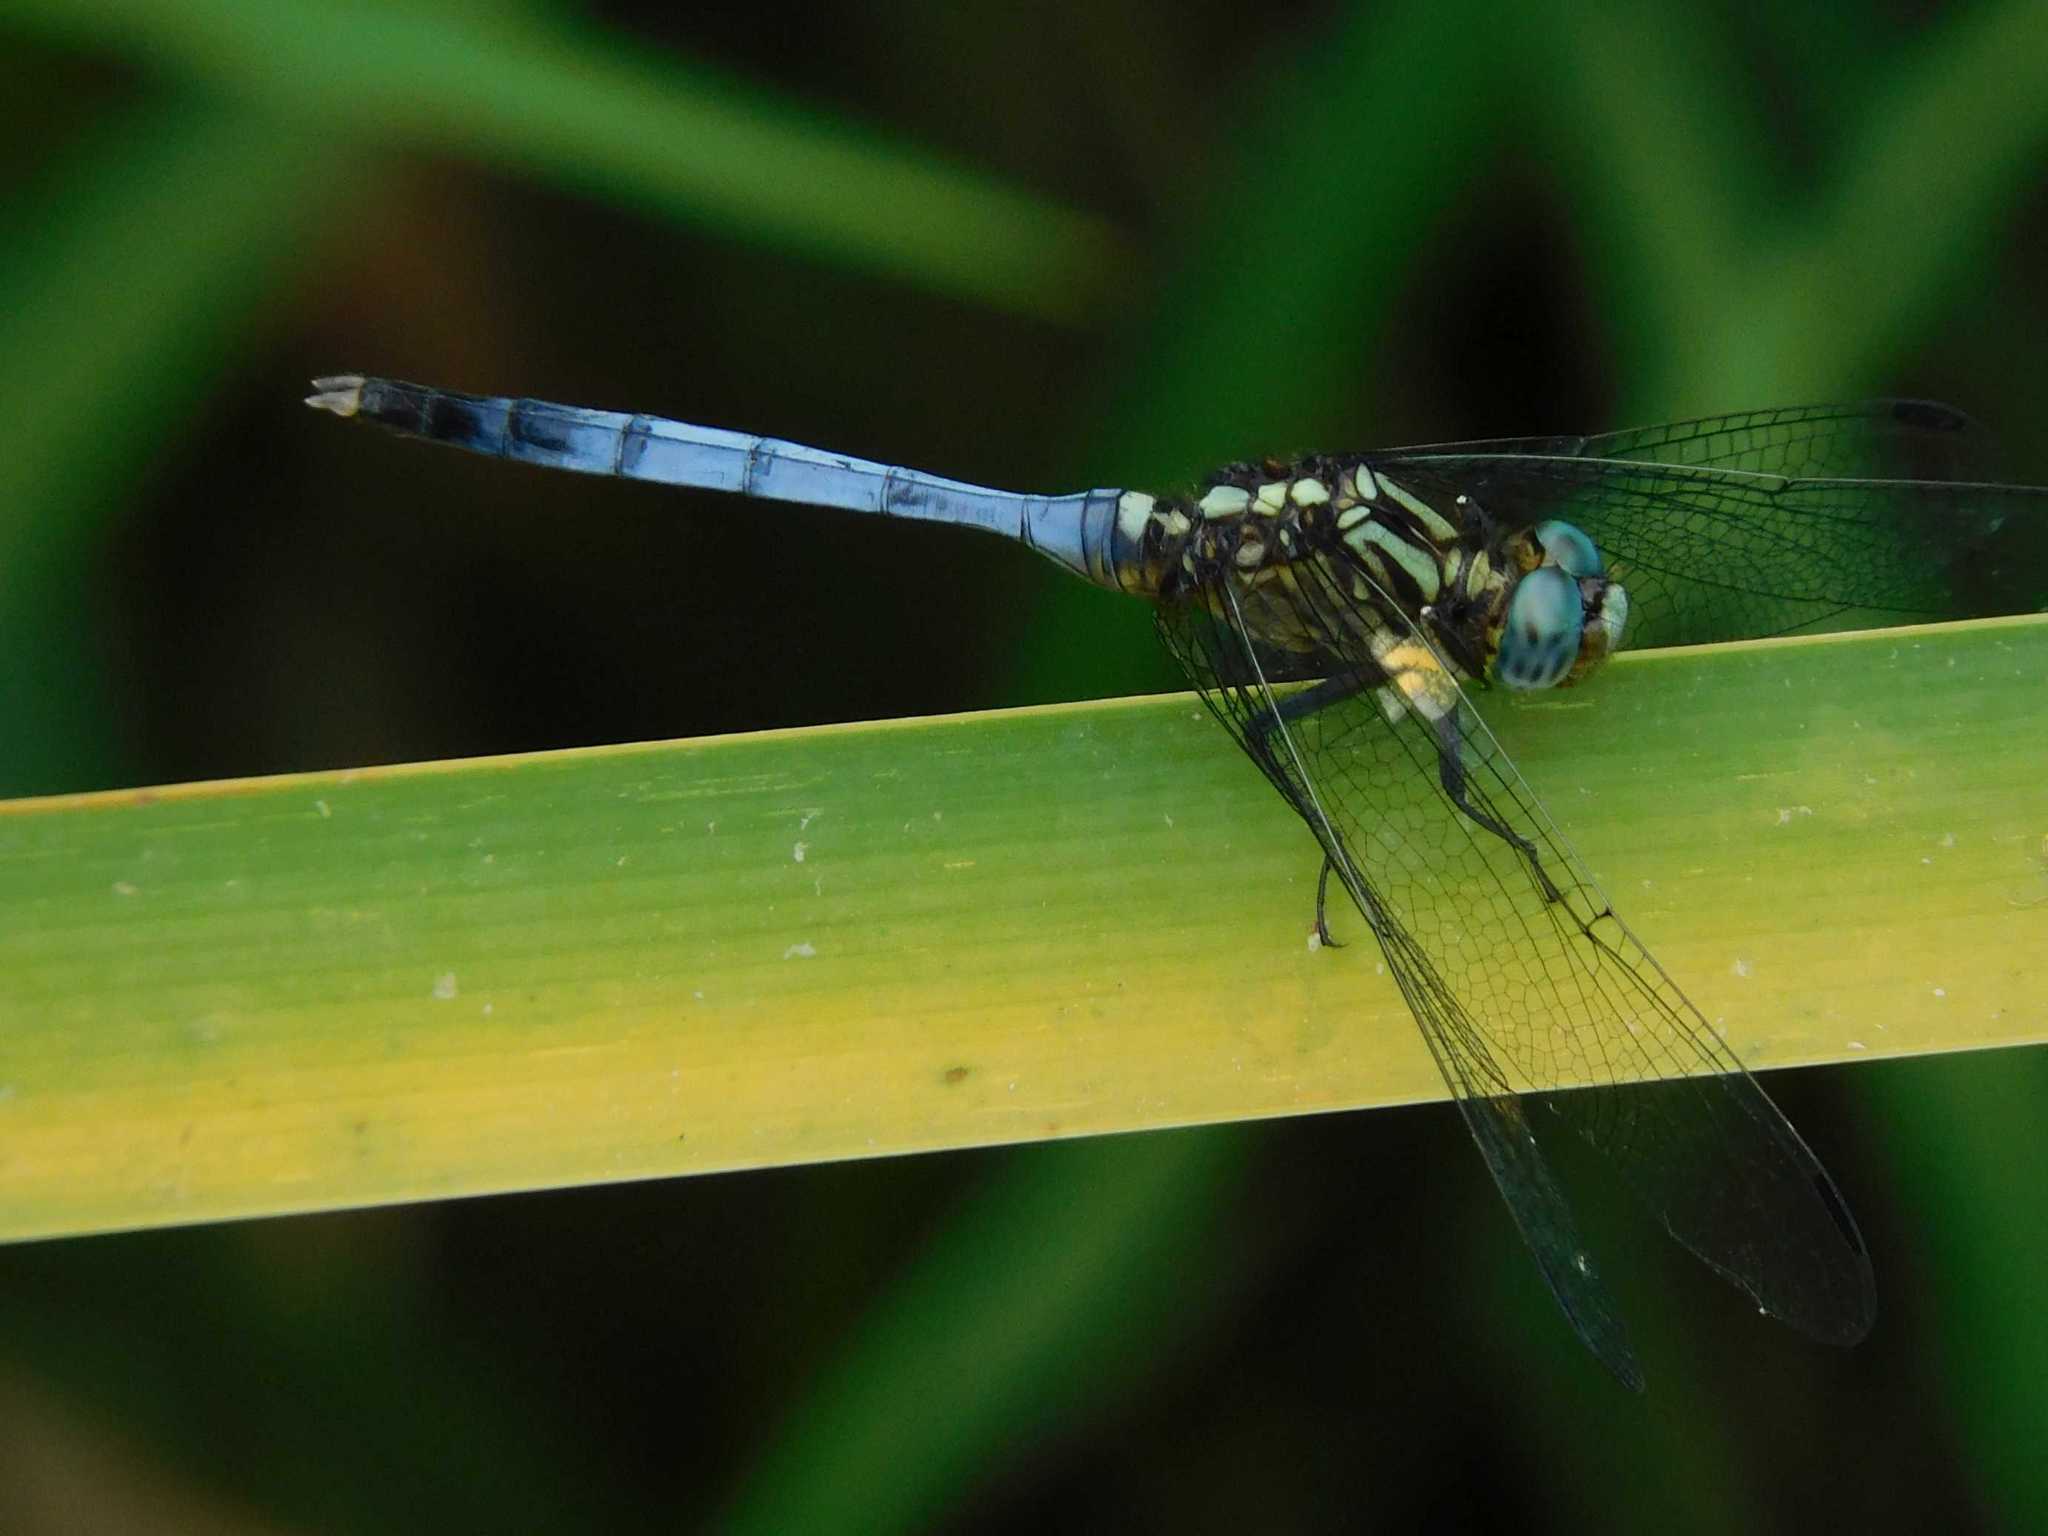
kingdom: Animalia
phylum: Arthropoda
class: Insecta
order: Odonata
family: Libellulidae
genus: Orthetrum
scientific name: Orthetrum julia
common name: Julia skimmer
